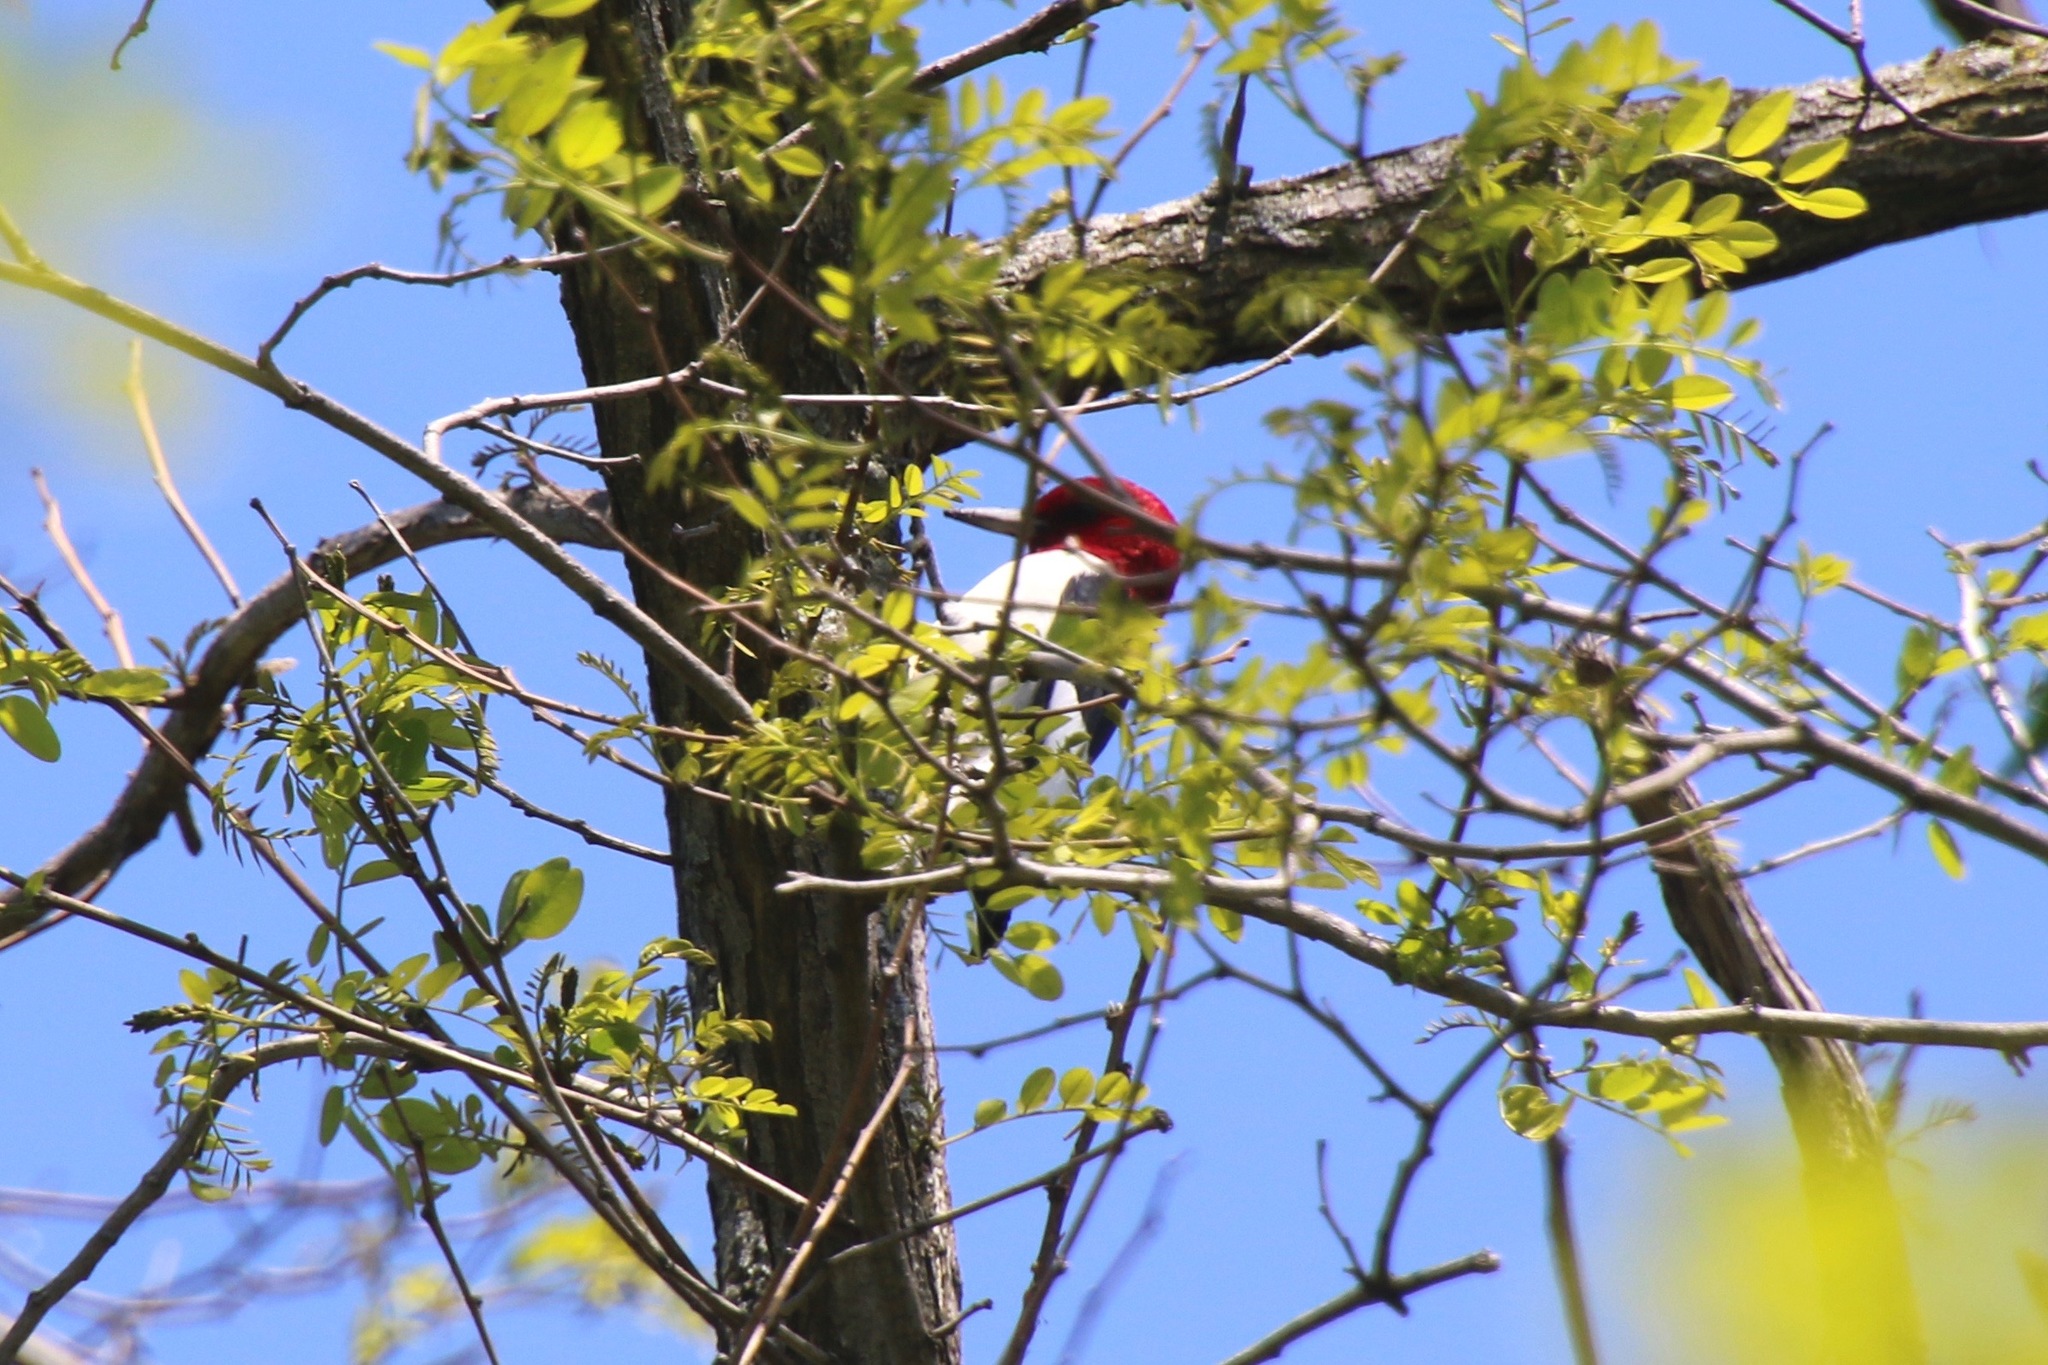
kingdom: Animalia
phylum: Chordata
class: Aves
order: Piciformes
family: Picidae
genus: Melanerpes
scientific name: Melanerpes erythrocephalus
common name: Red-headed woodpecker
